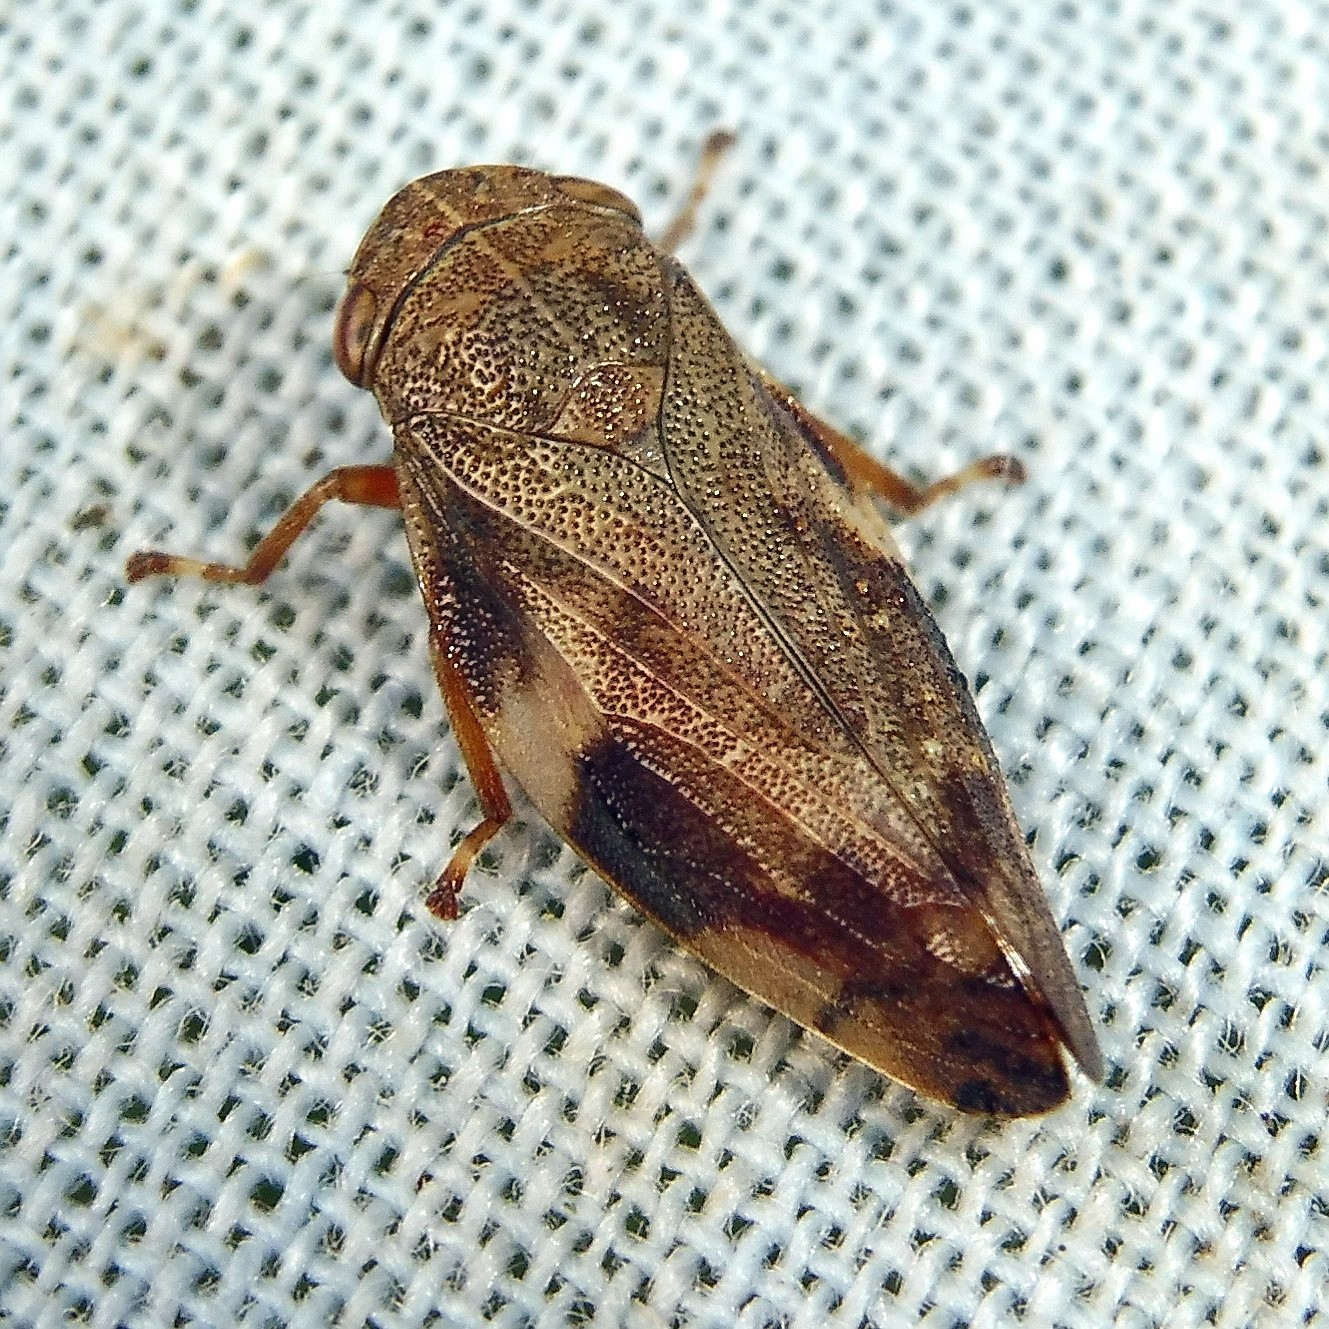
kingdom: Animalia
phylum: Arthropoda
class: Insecta
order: Hemiptera
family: Aphrophoridae
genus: Aphrophora
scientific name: Aphrophora alni
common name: European alder spittlebug
